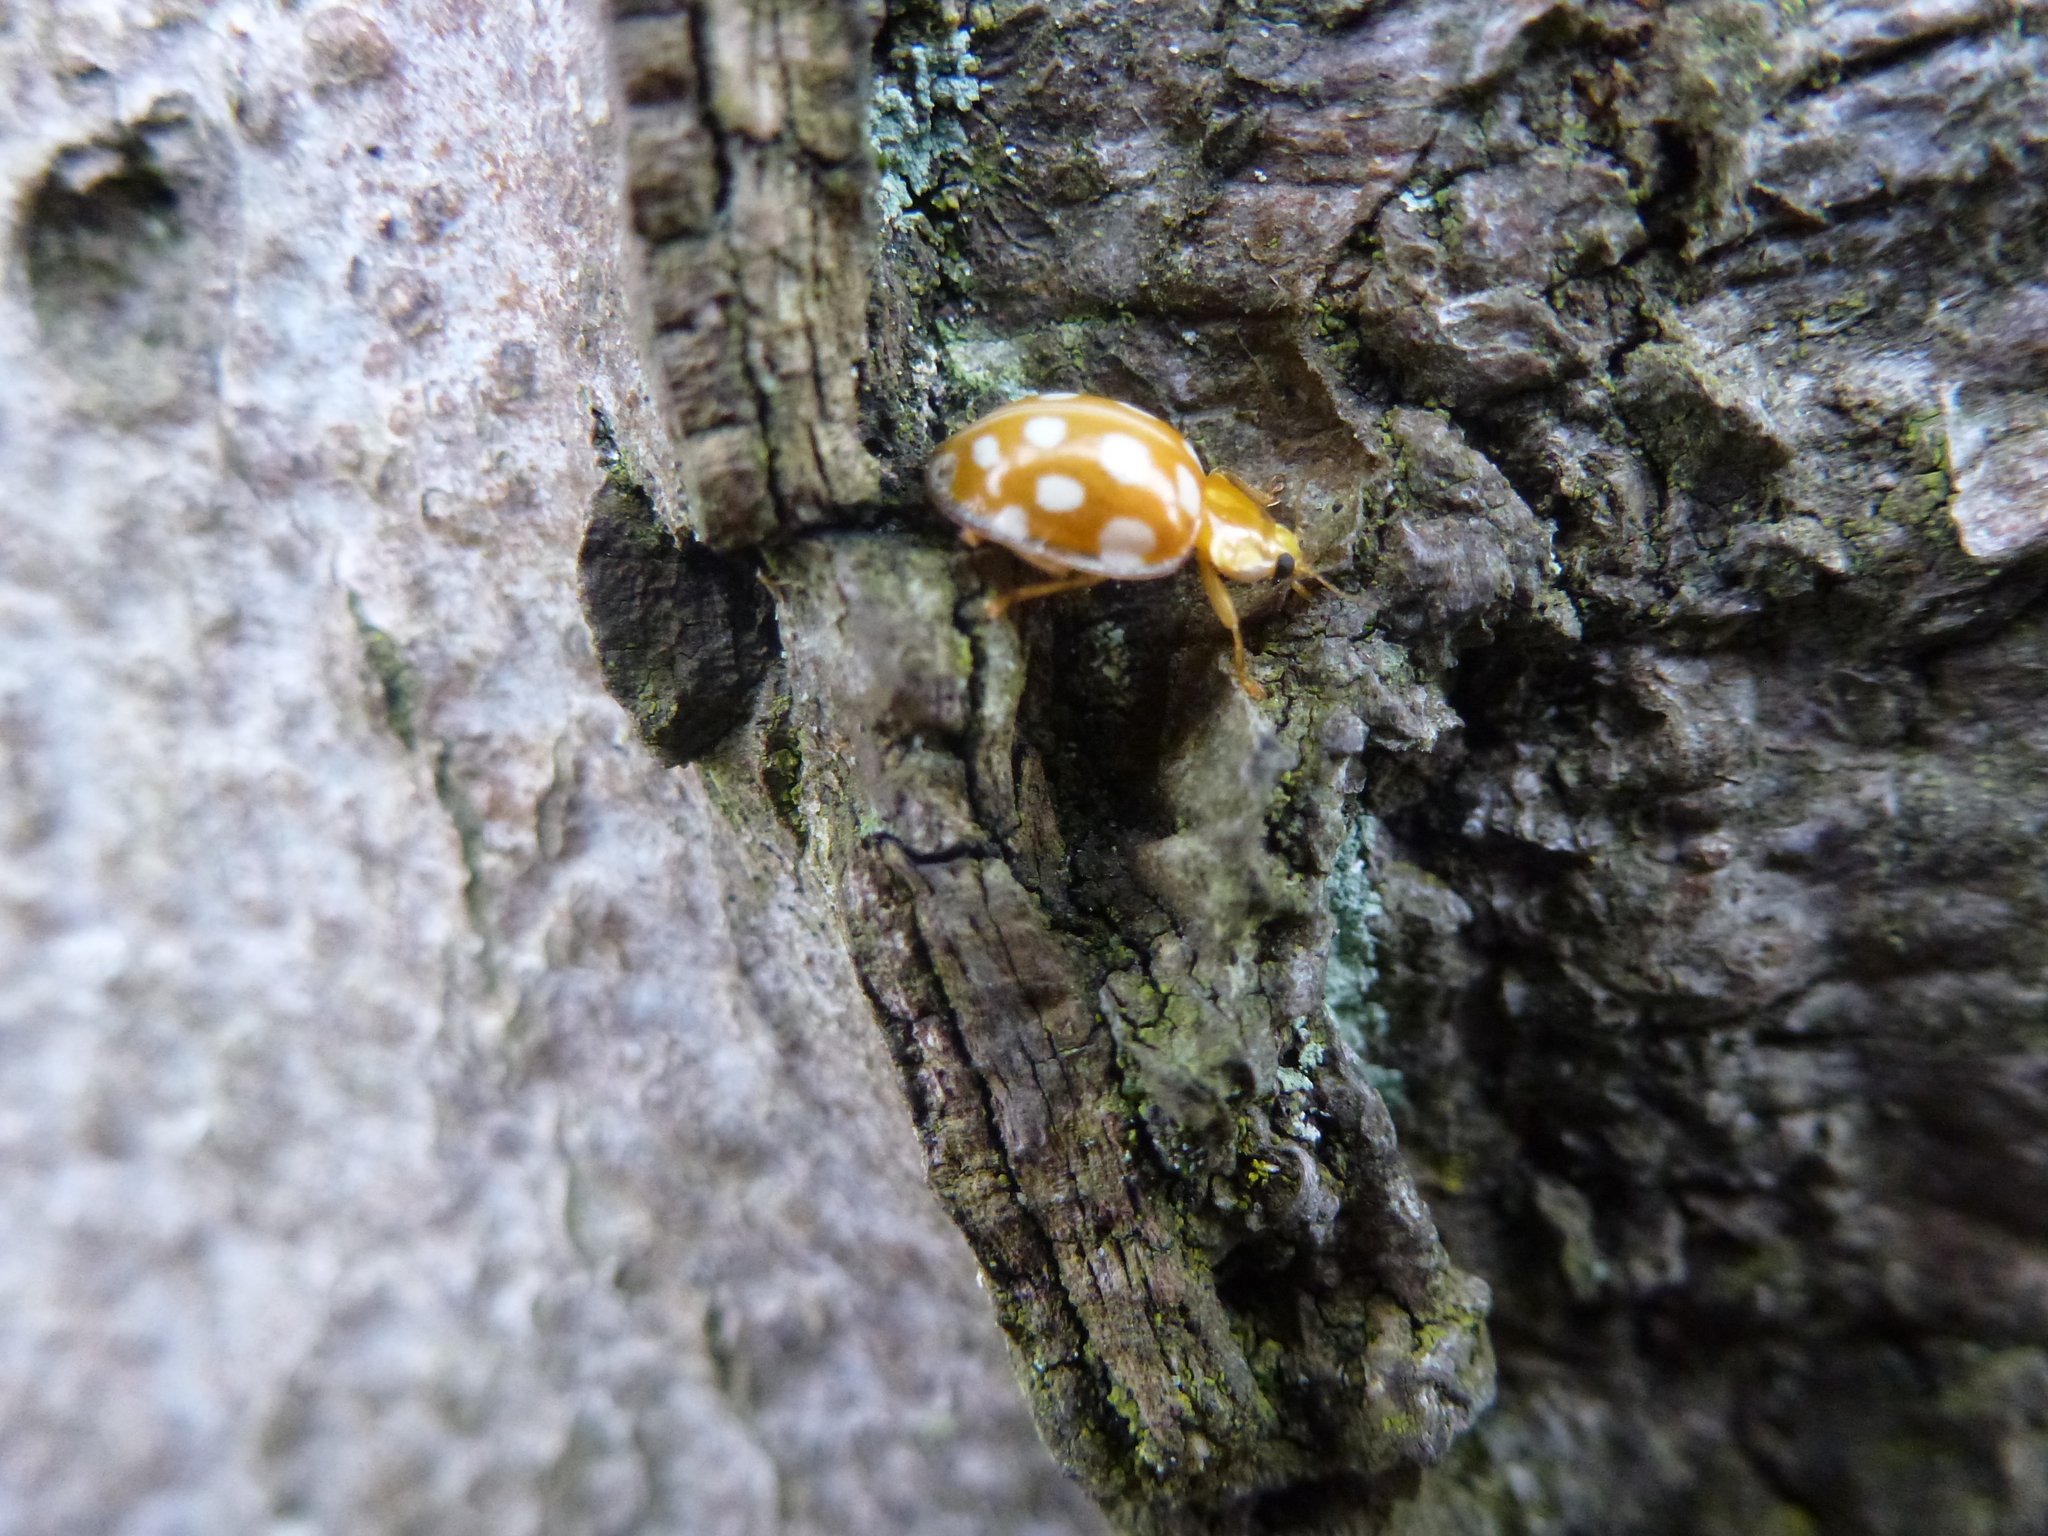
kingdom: Animalia
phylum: Arthropoda
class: Insecta
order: Coleoptera
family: Coccinellidae
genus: Halyzia
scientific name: Halyzia sedecimguttata
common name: Orange ladybird
